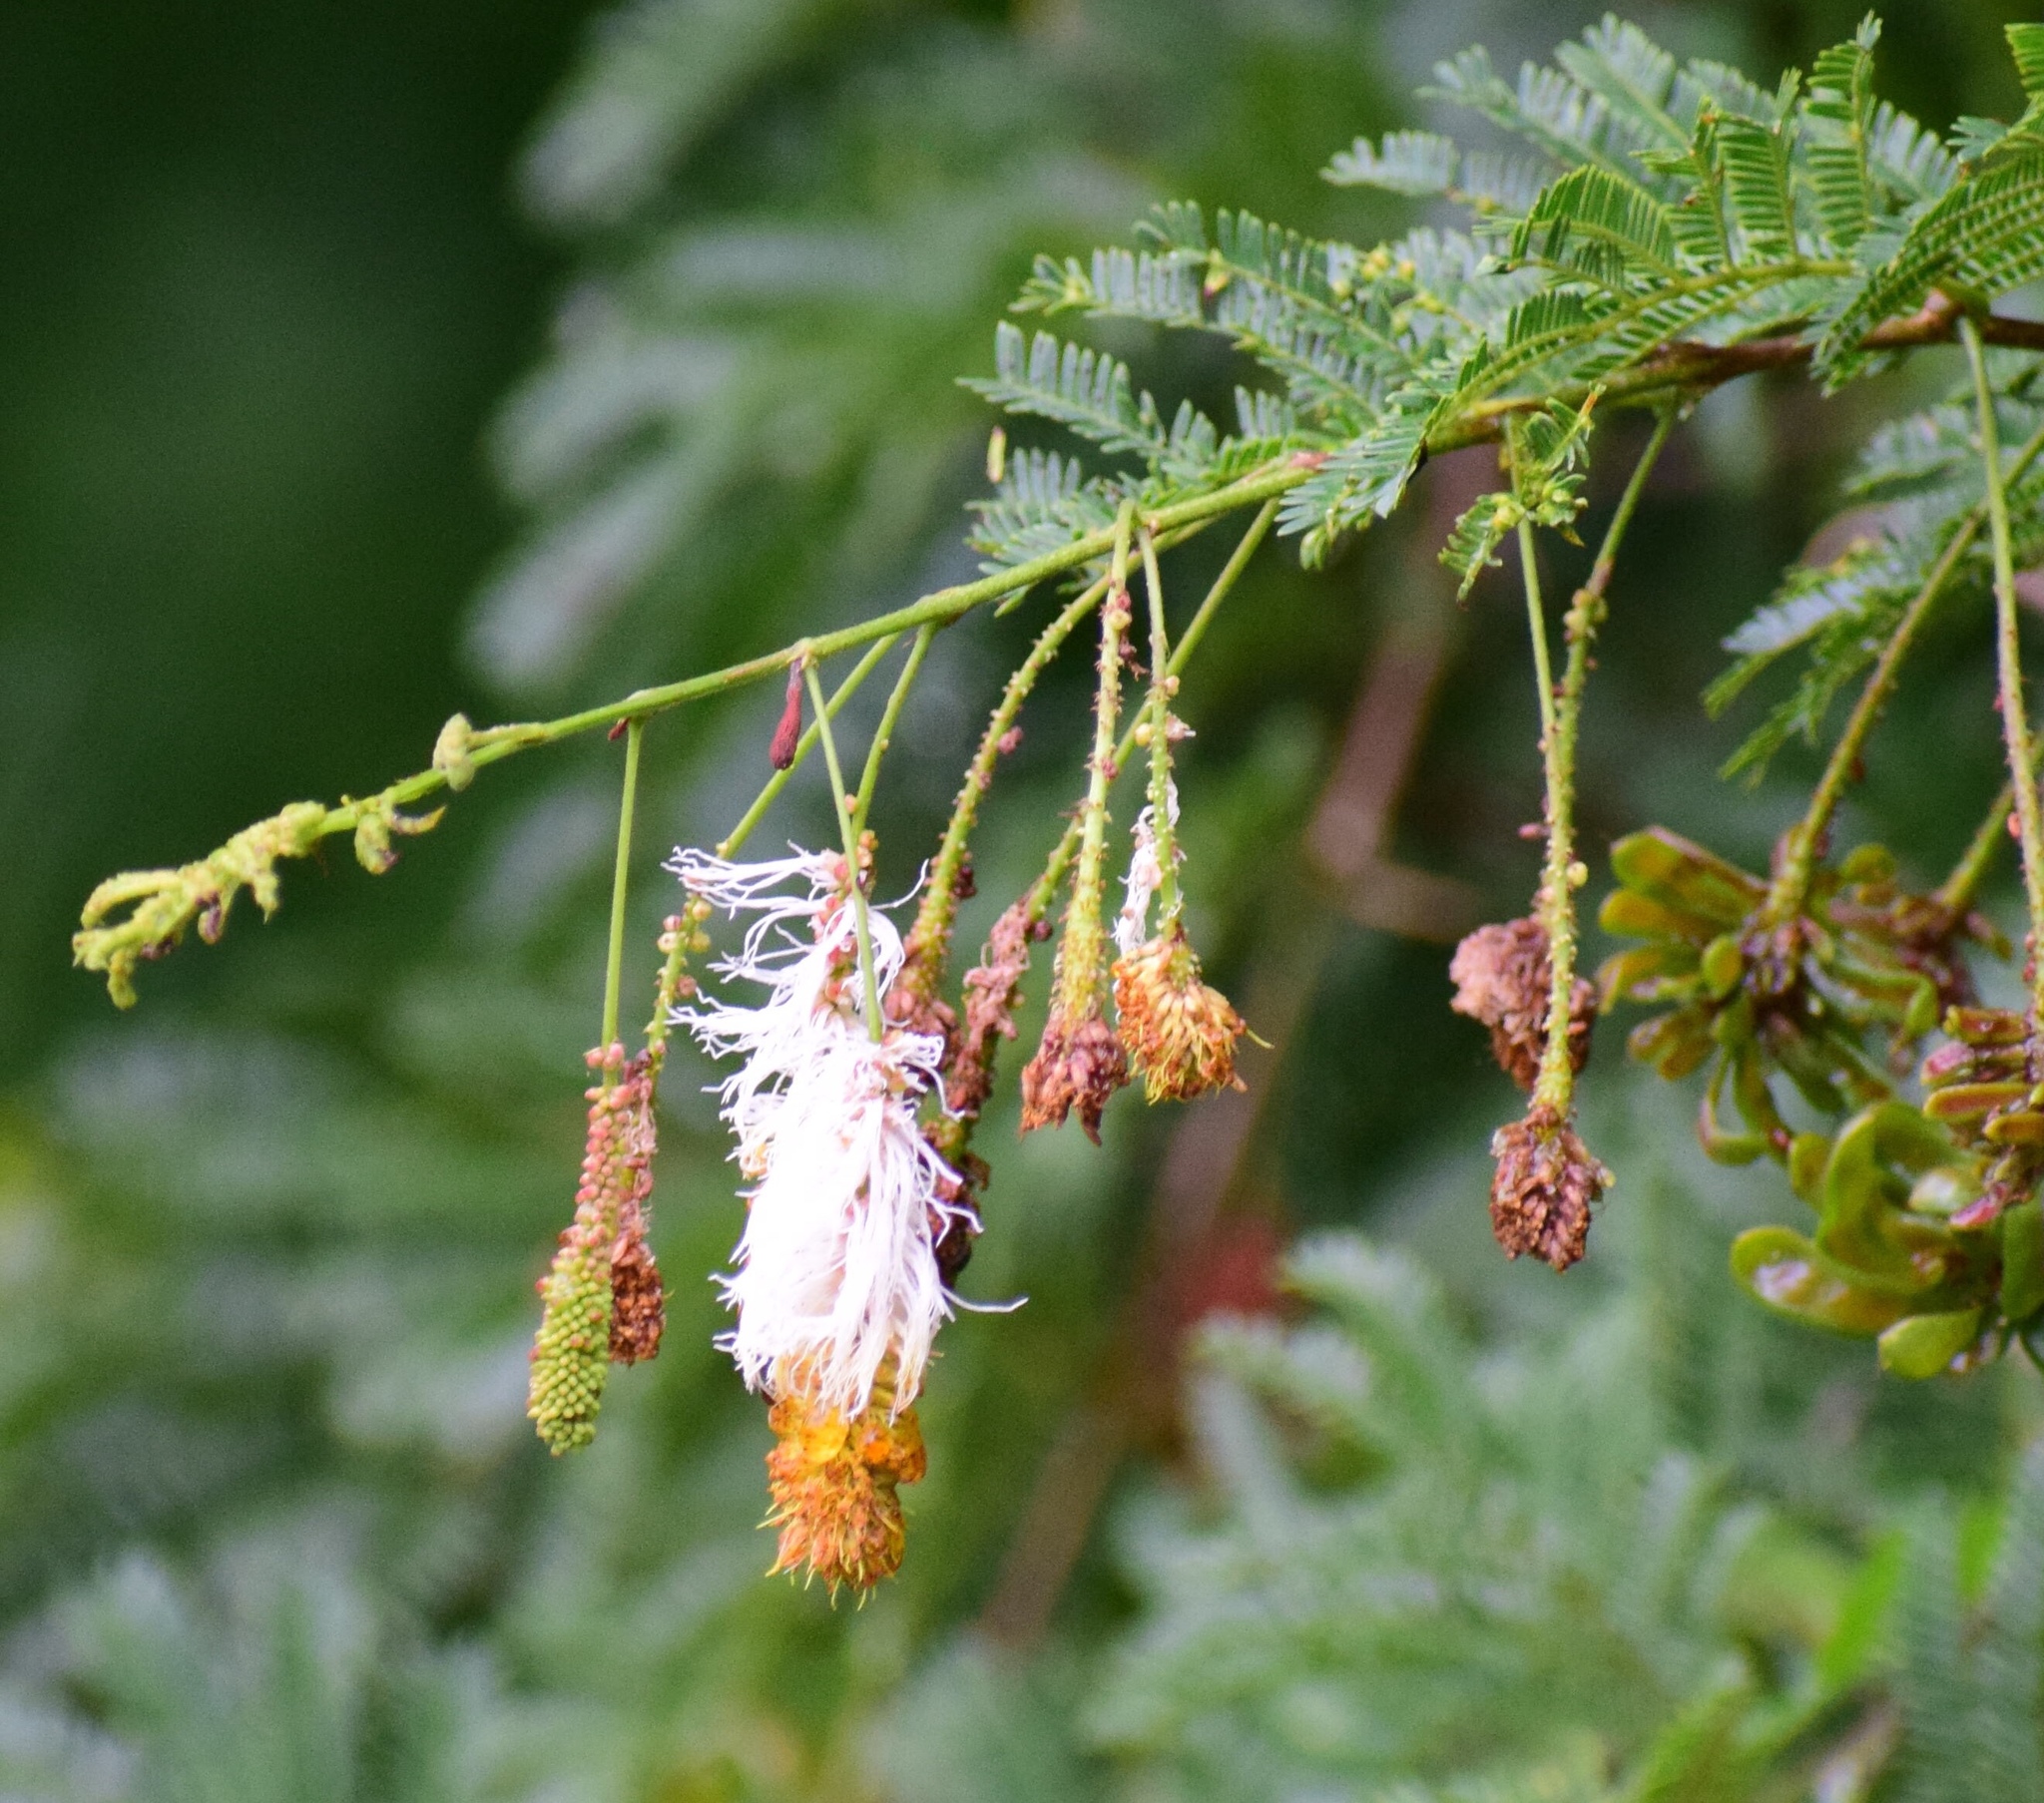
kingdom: Plantae
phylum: Tracheophyta
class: Magnoliopsida
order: Fabales
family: Fabaceae
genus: Dichrostachys
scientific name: Dichrostachys cinerea
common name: Sicklebush
